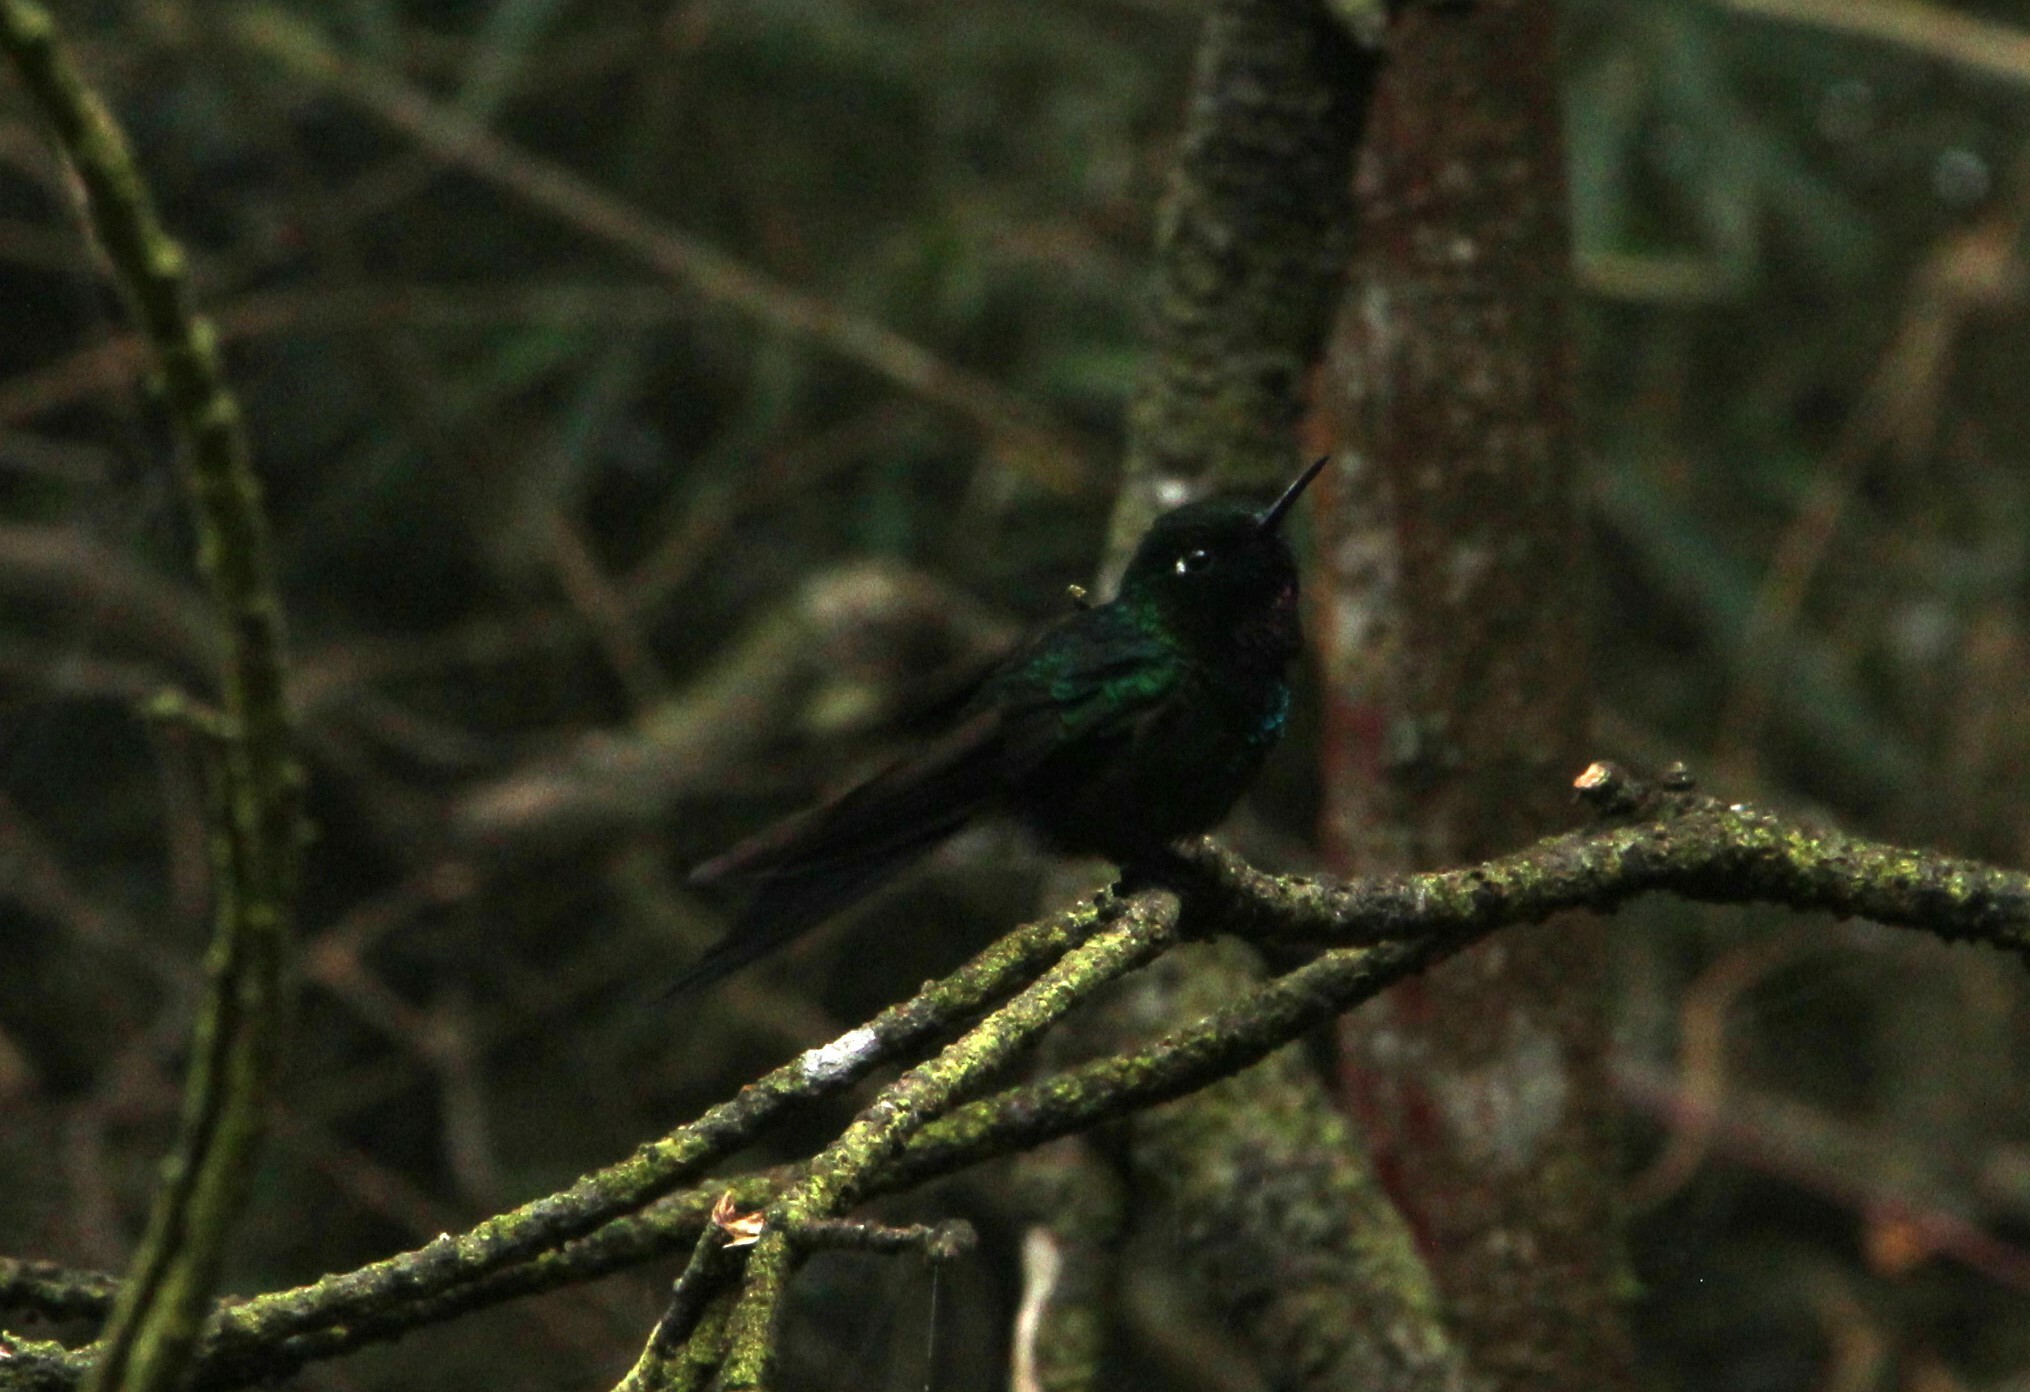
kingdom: Animalia
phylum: Chordata
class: Aves
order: Apodiformes
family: Trochilidae
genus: Heliangelus
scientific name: Heliangelus exortis
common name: Tourmaline sunangel
